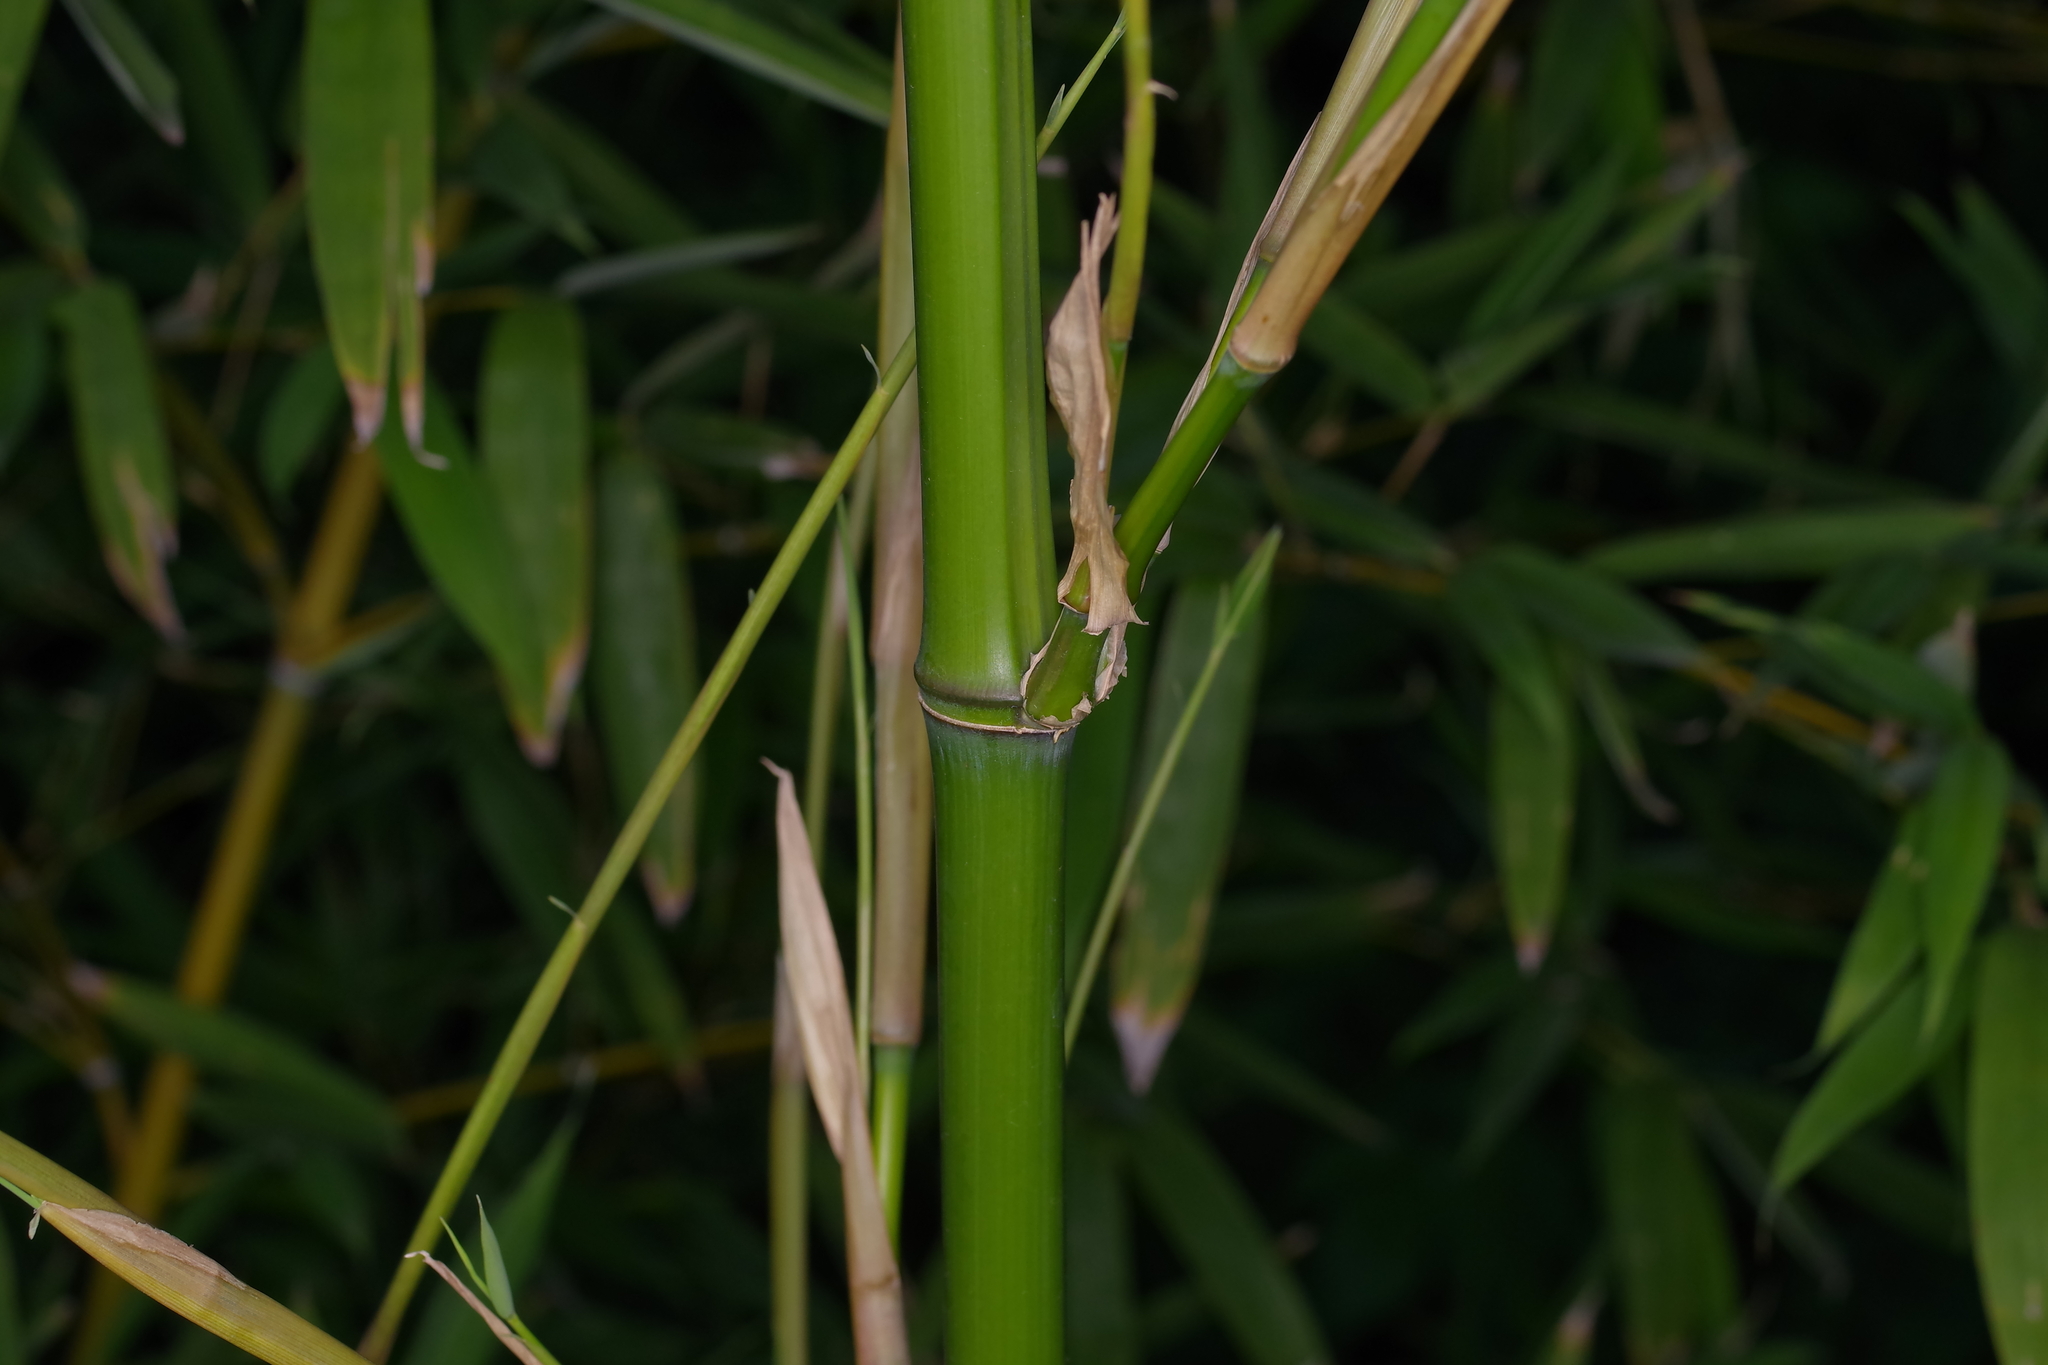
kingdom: Plantae
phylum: Tracheophyta
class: Liliopsida
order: Poales
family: Poaceae
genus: Phyllostachys
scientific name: Phyllostachys aurea
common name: Golden bamboo
